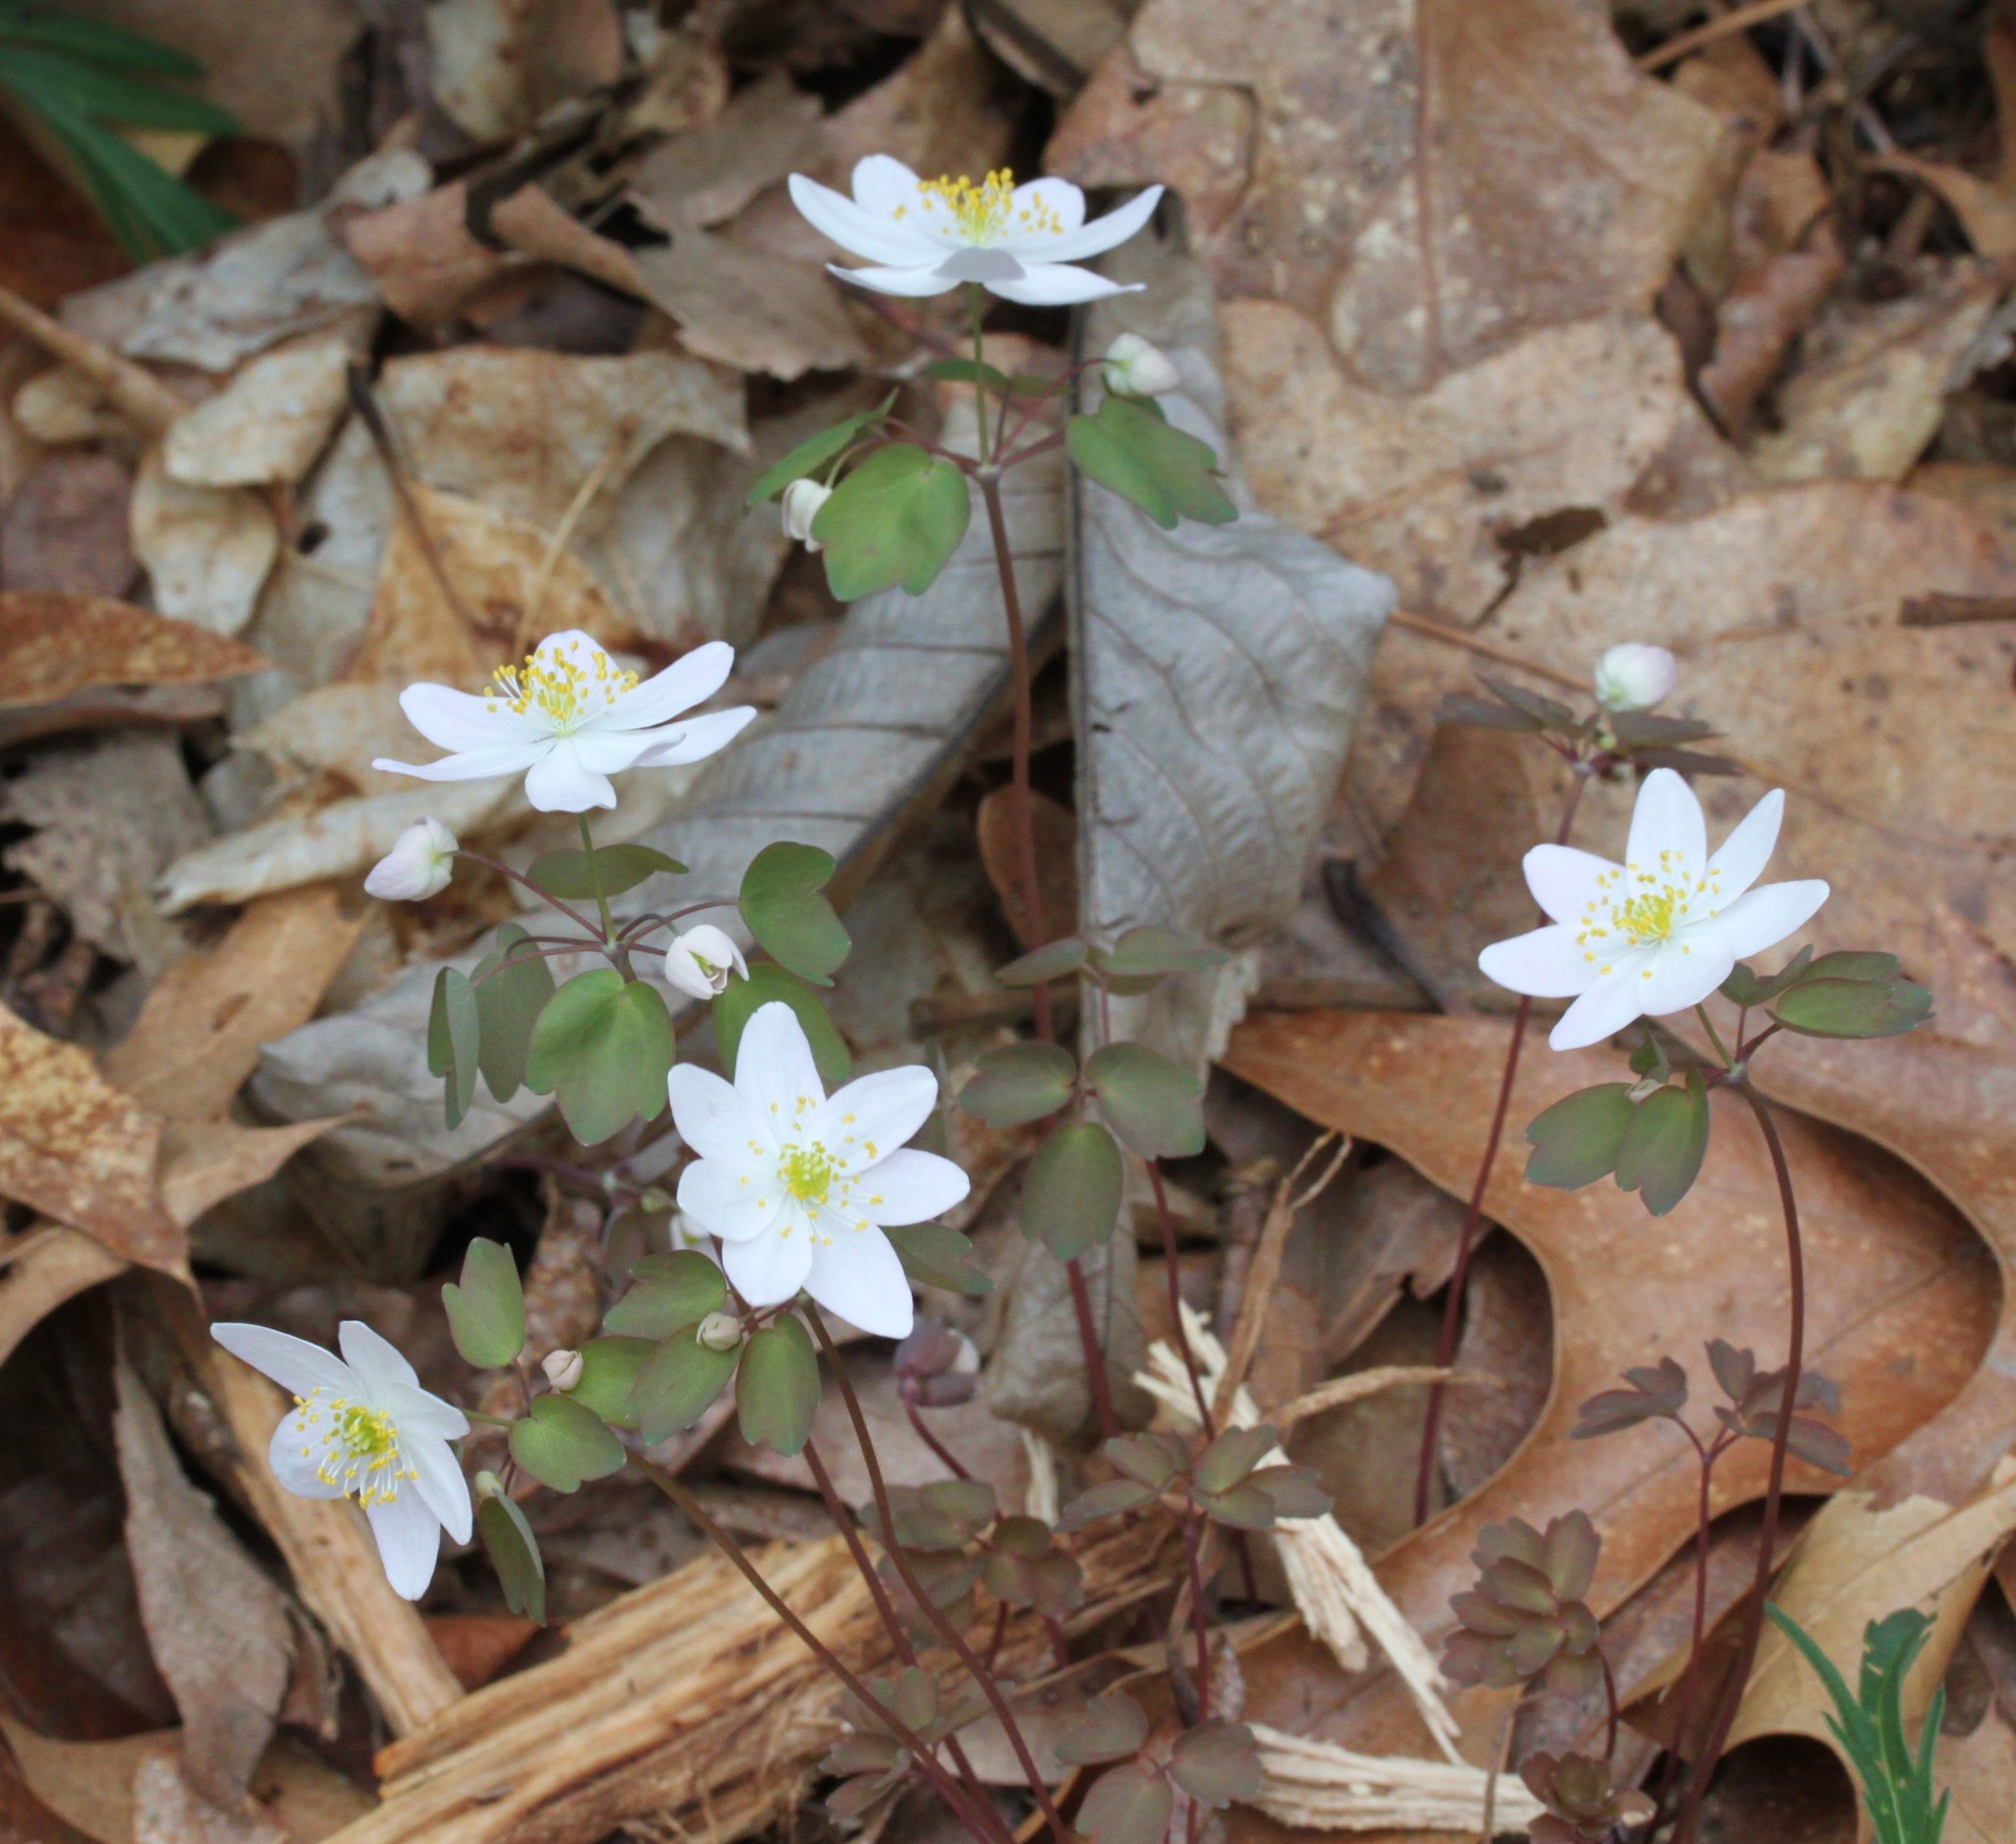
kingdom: Plantae
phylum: Tracheophyta
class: Magnoliopsida
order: Ranunculales
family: Ranunculaceae
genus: Thalictrum
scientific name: Thalictrum thalictroides
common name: Rue-anemone
